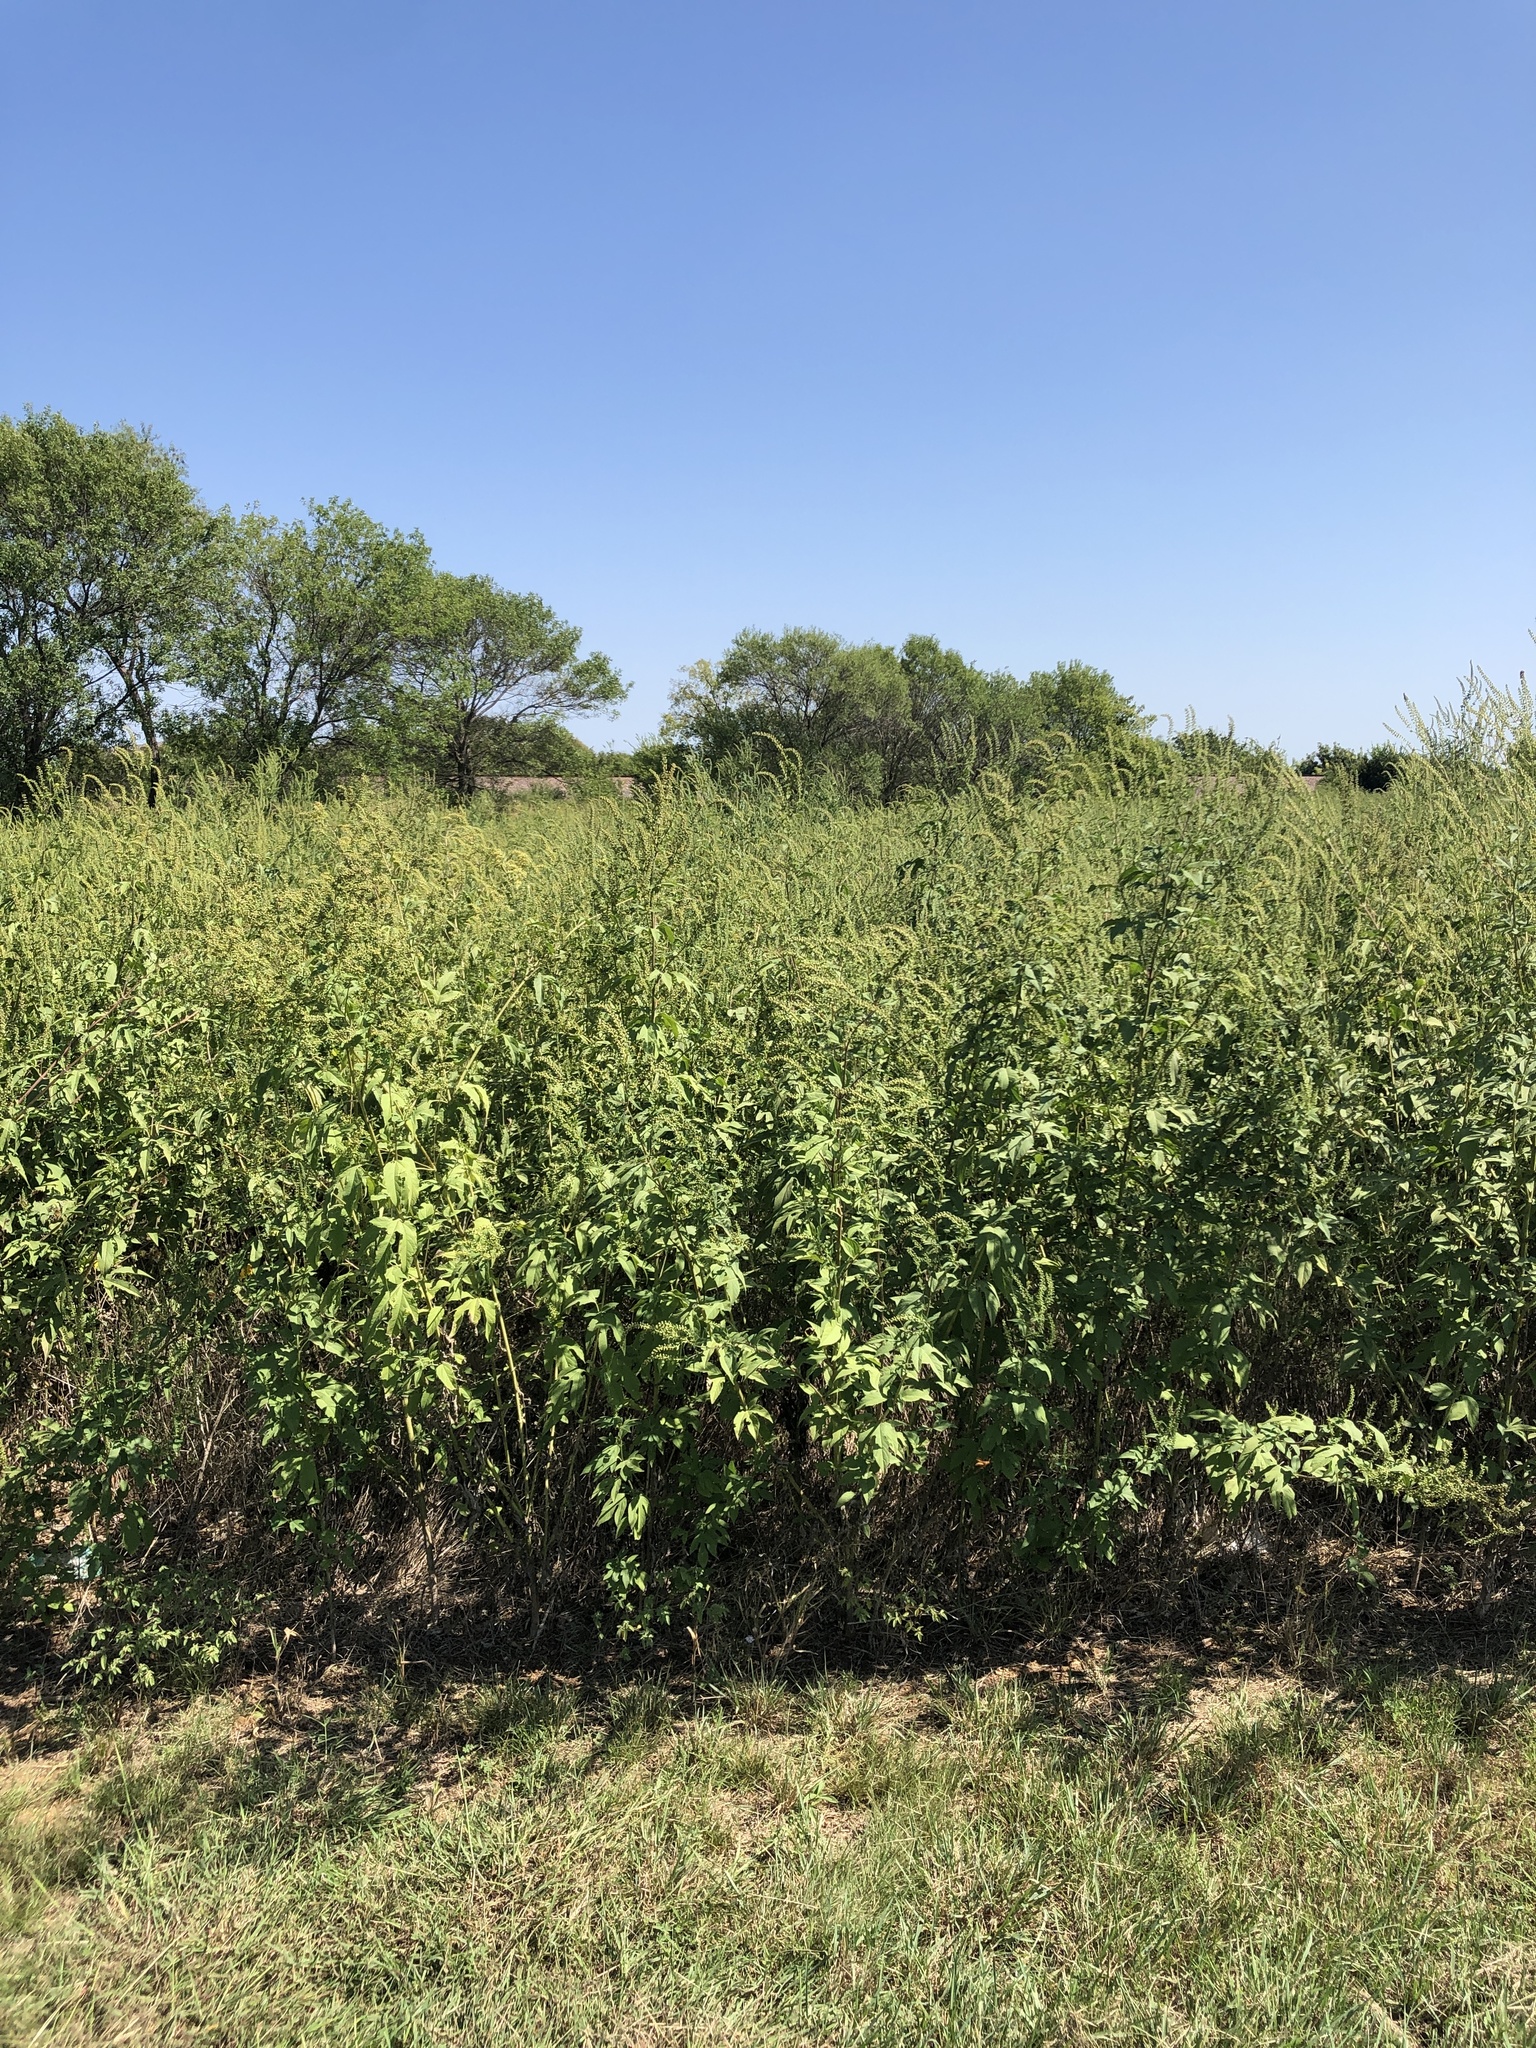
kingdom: Plantae
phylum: Tracheophyta
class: Magnoliopsida
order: Asterales
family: Asteraceae
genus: Ambrosia
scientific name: Ambrosia artemisiifolia
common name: Annual ragweed
